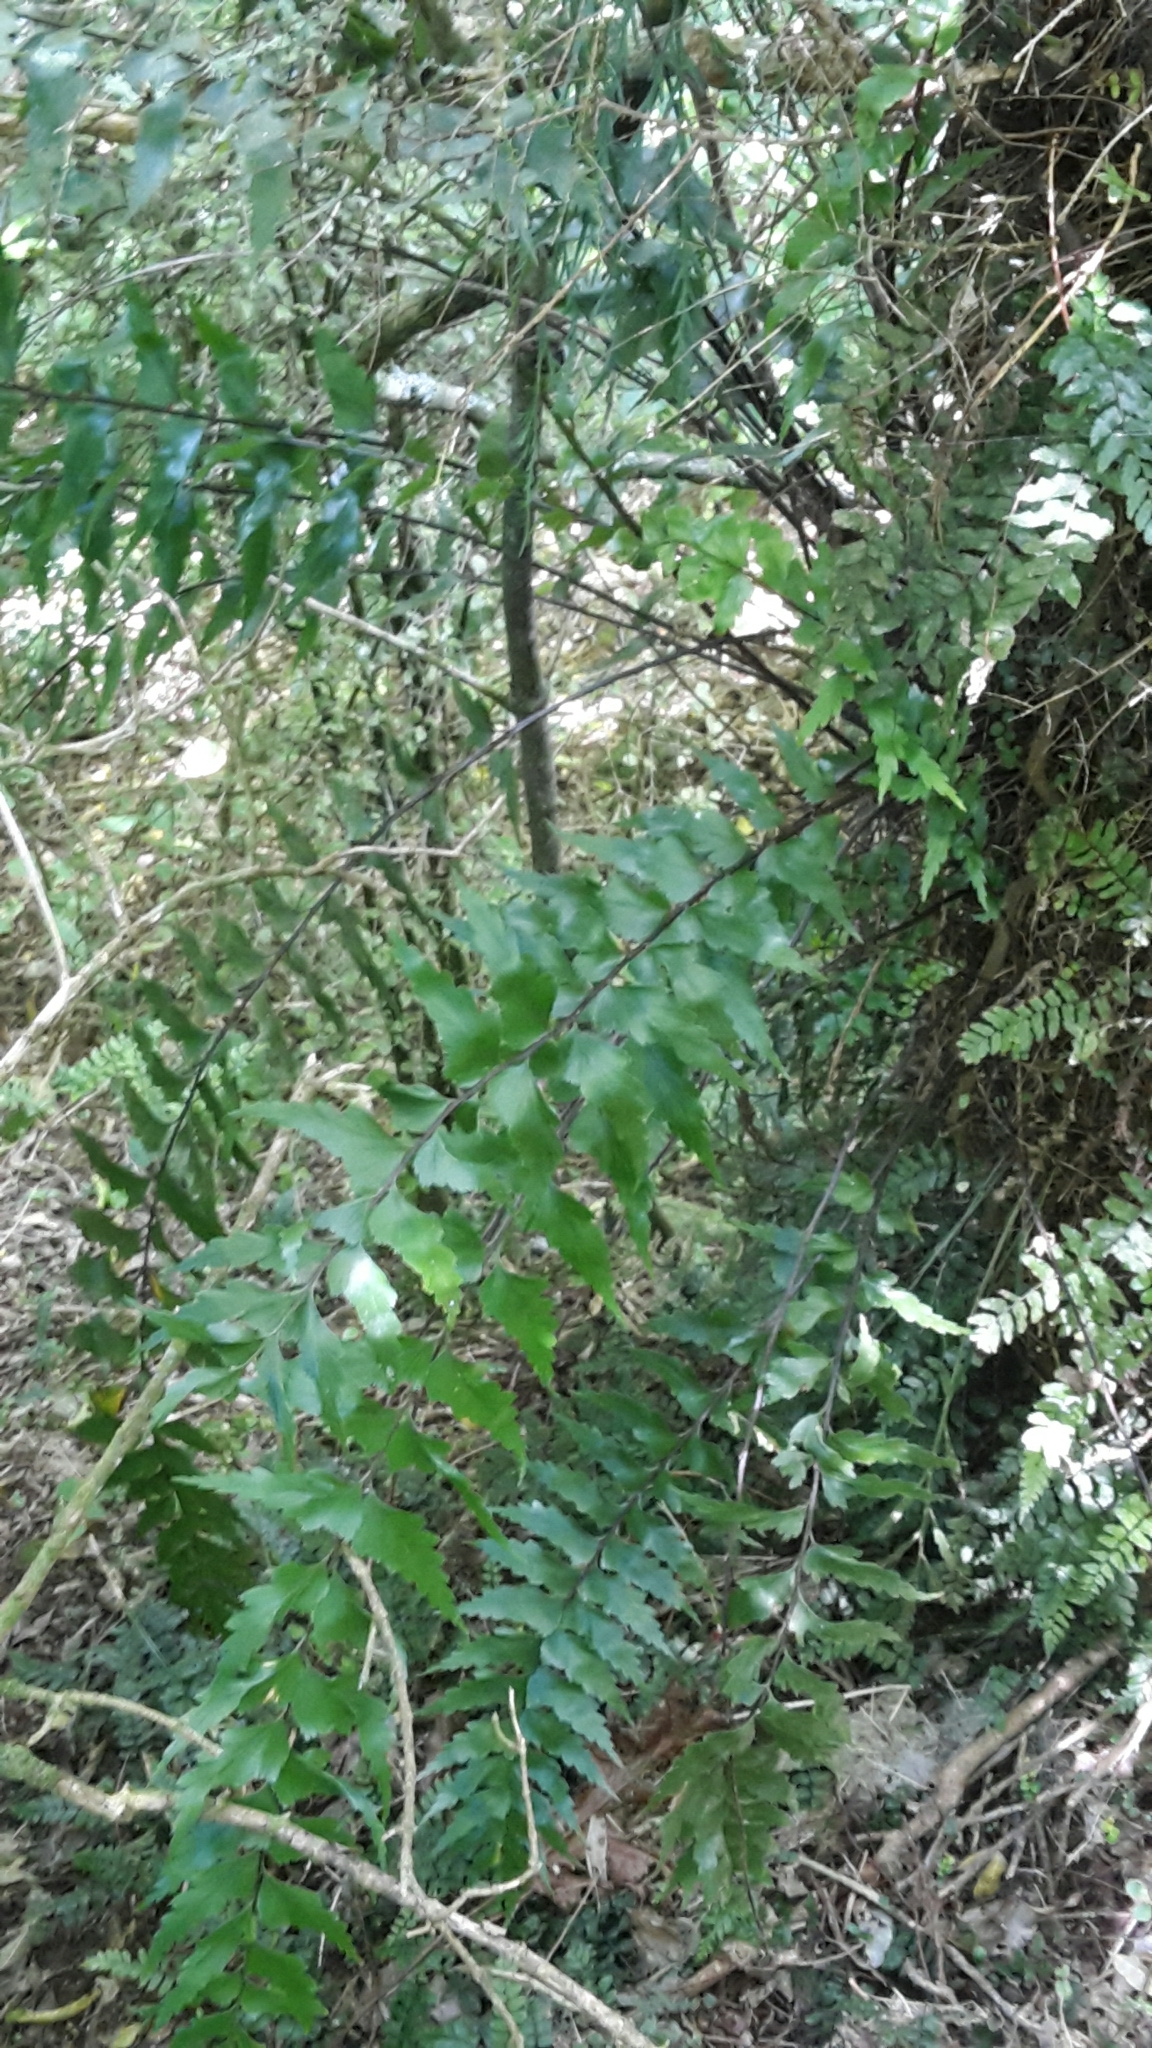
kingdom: Plantae
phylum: Tracheophyta
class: Polypodiopsida
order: Polypodiales
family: Aspleniaceae
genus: Asplenium
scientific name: Asplenium polyodon
